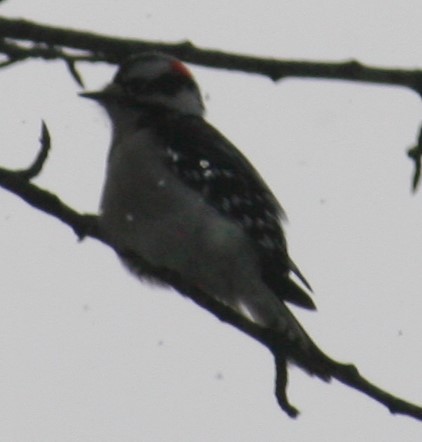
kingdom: Animalia
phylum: Chordata
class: Aves
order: Piciformes
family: Picidae
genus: Dryobates
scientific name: Dryobates pubescens
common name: Downy woodpecker
